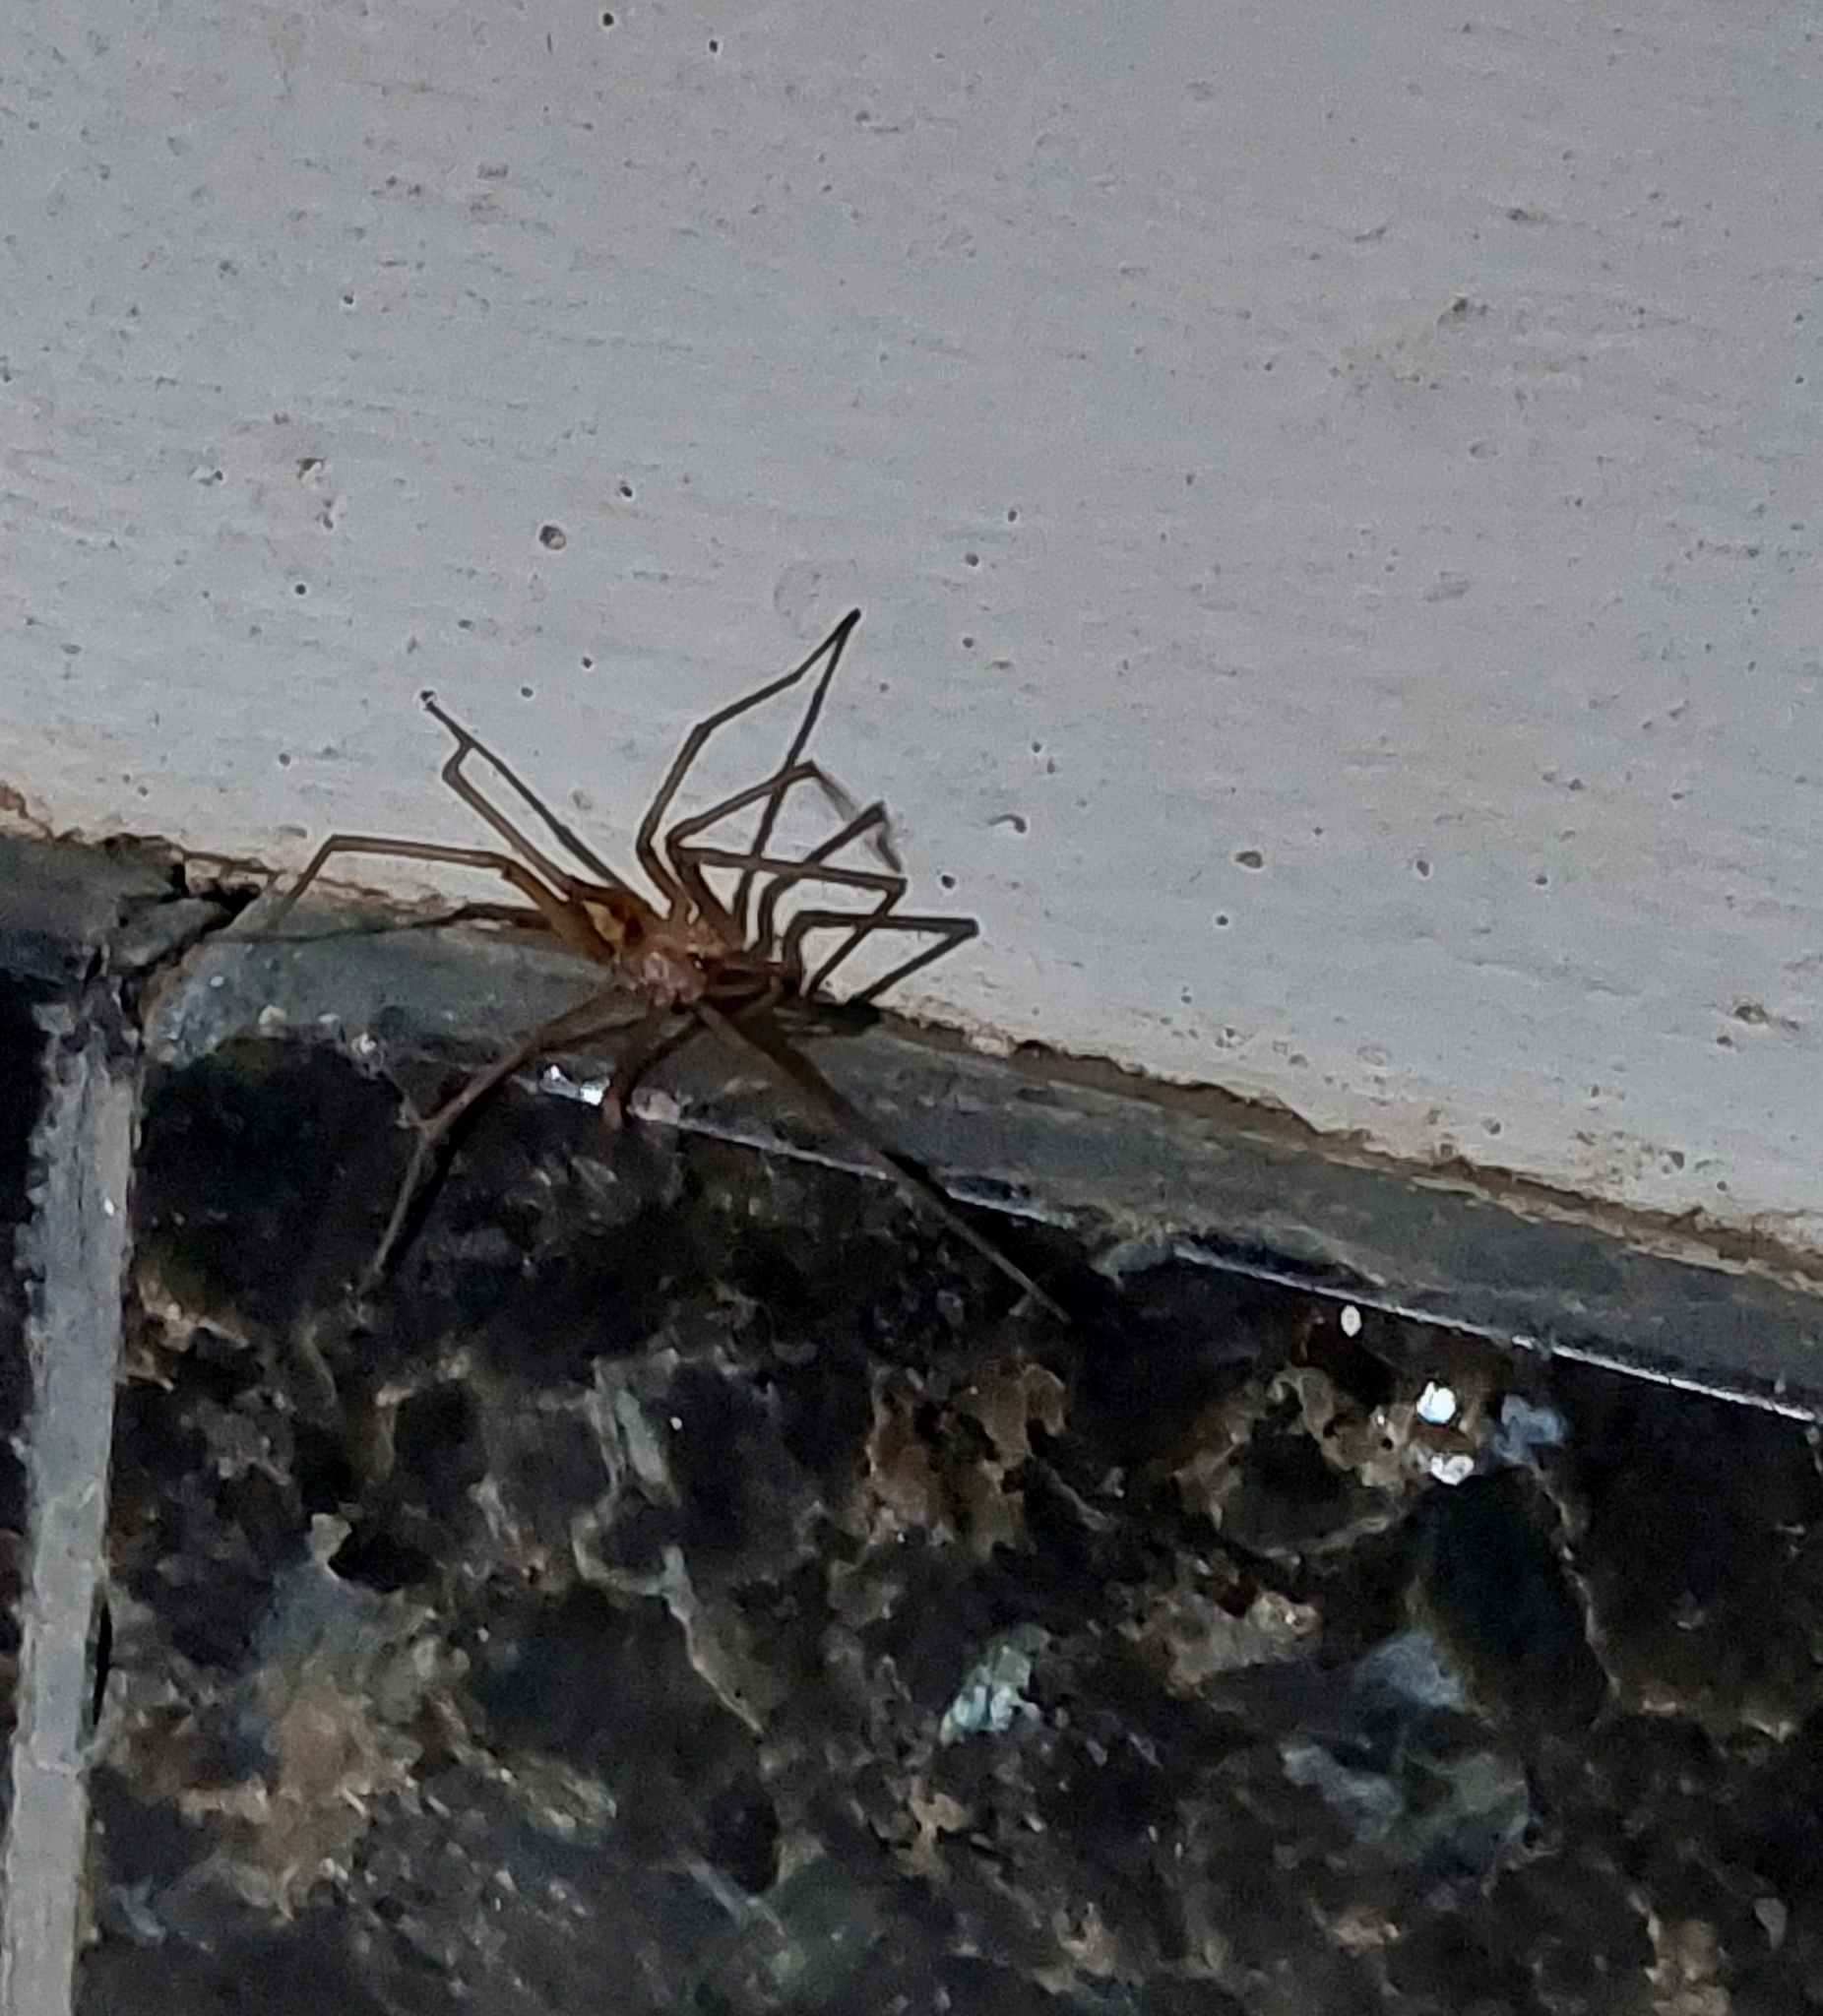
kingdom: Animalia
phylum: Arthropoda
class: Arachnida
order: Araneae
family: Filistatidae
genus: Kukulcania
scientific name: Kukulcania hibernalis
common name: Crevice weaver
